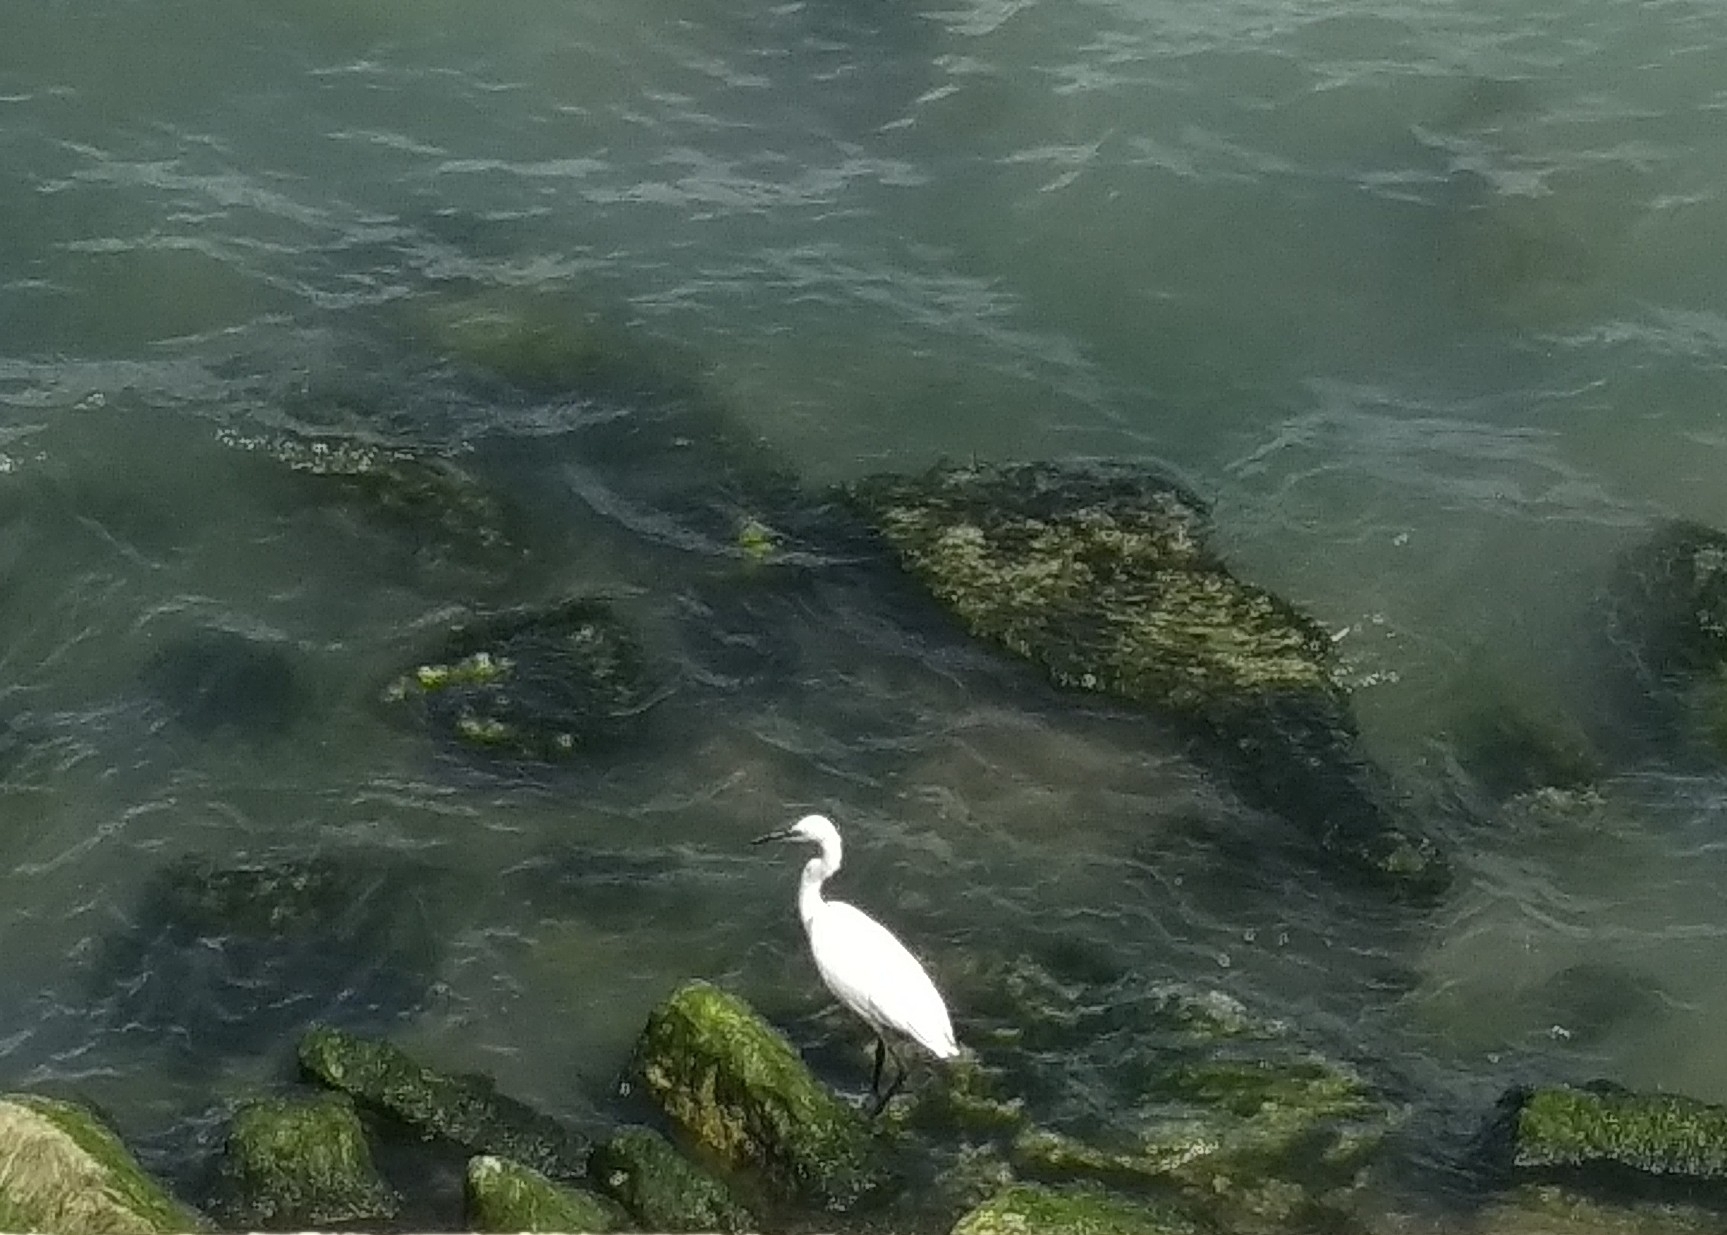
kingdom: Animalia
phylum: Chordata
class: Aves
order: Pelecaniformes
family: Ardeidae
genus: Egretta
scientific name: Egretta garzetta
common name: Little egret
